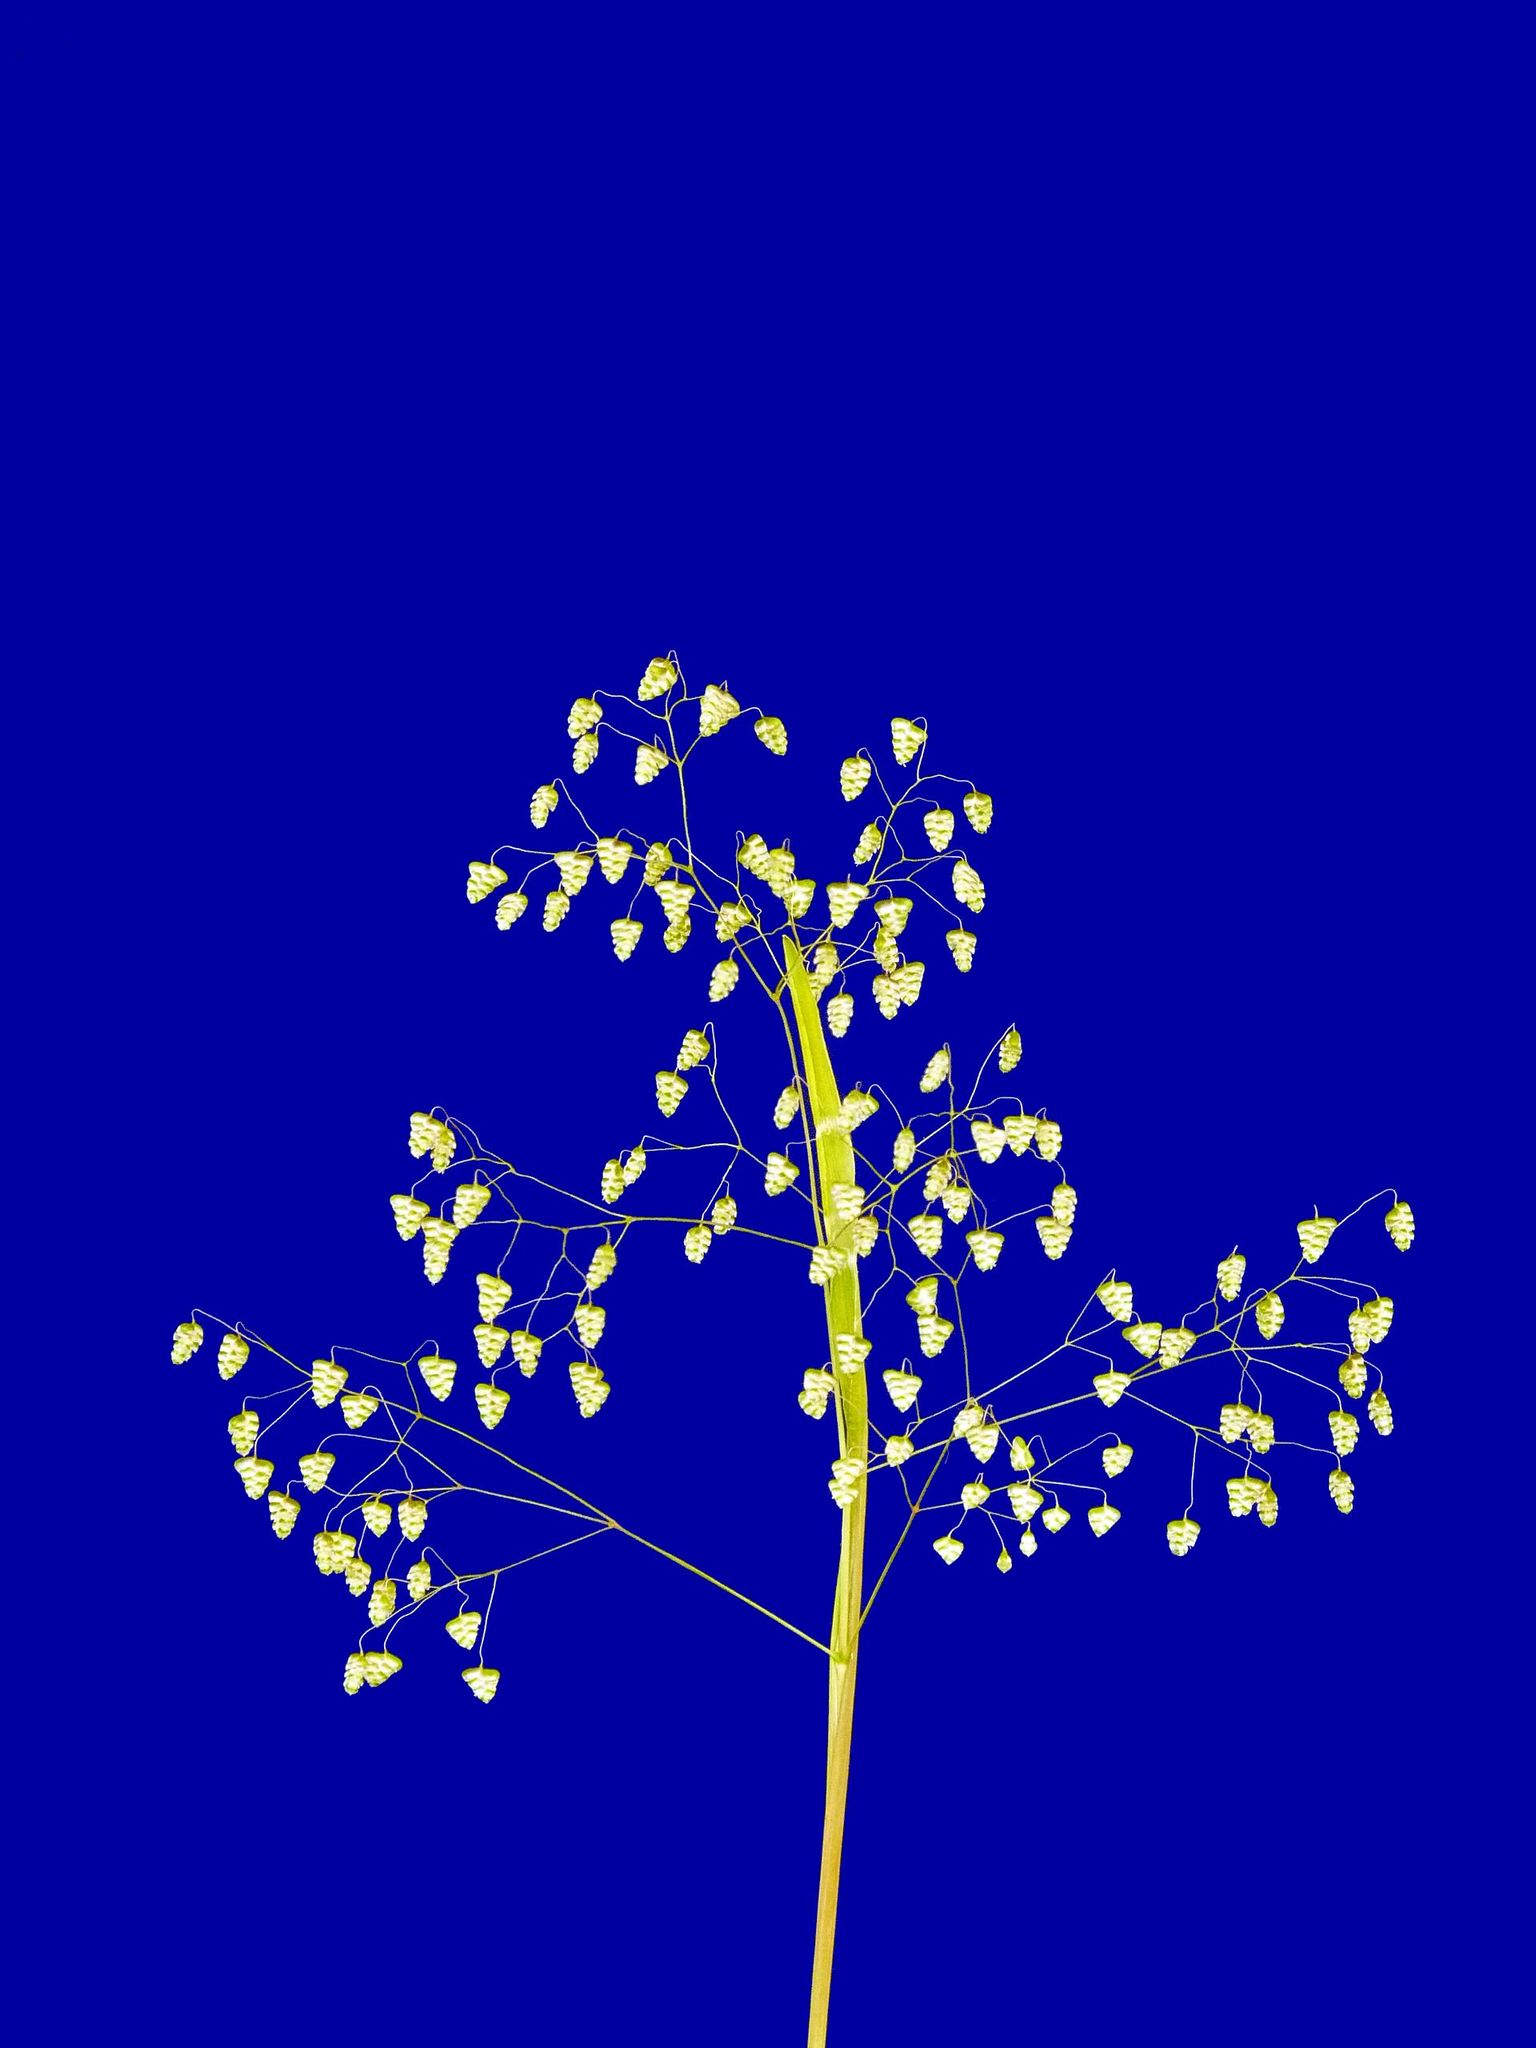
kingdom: Plantae
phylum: Tracheophyta
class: Liliopsida
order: Poales
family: Poaceae
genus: Briza
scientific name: Briza minor
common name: Lesser quaking-grass
